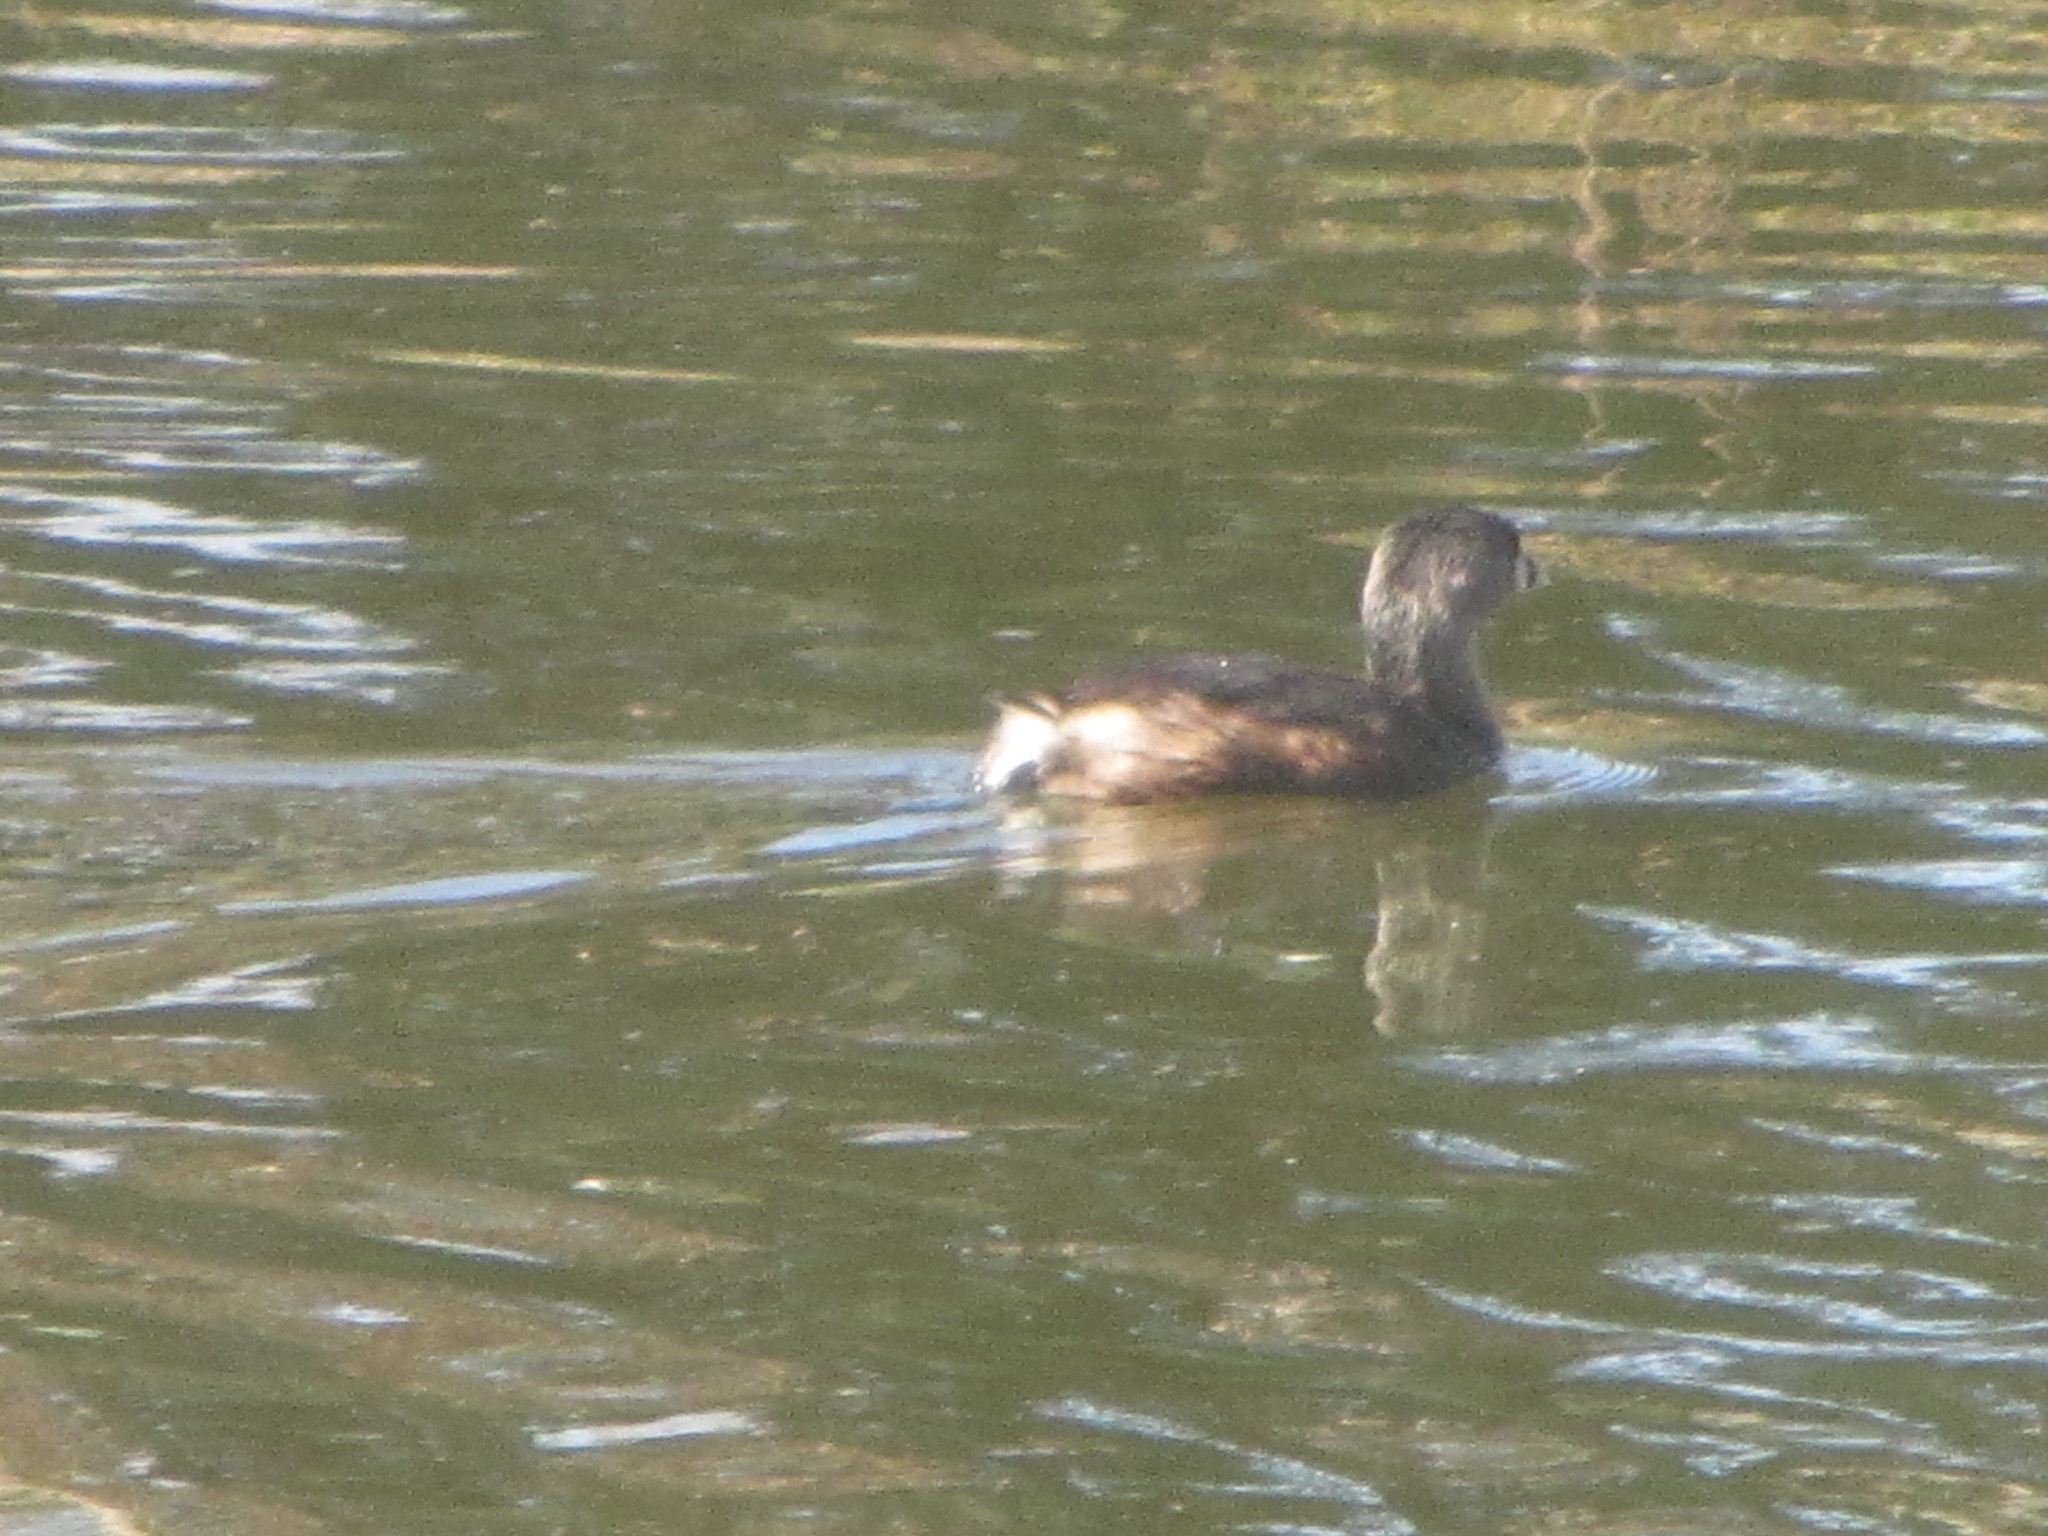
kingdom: Animalia
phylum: Chordata
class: Aves
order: Podicipediformes
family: Podicipedidae
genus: Podilymbus
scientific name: Podilymbus podiceps
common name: Pied-billed grebe
